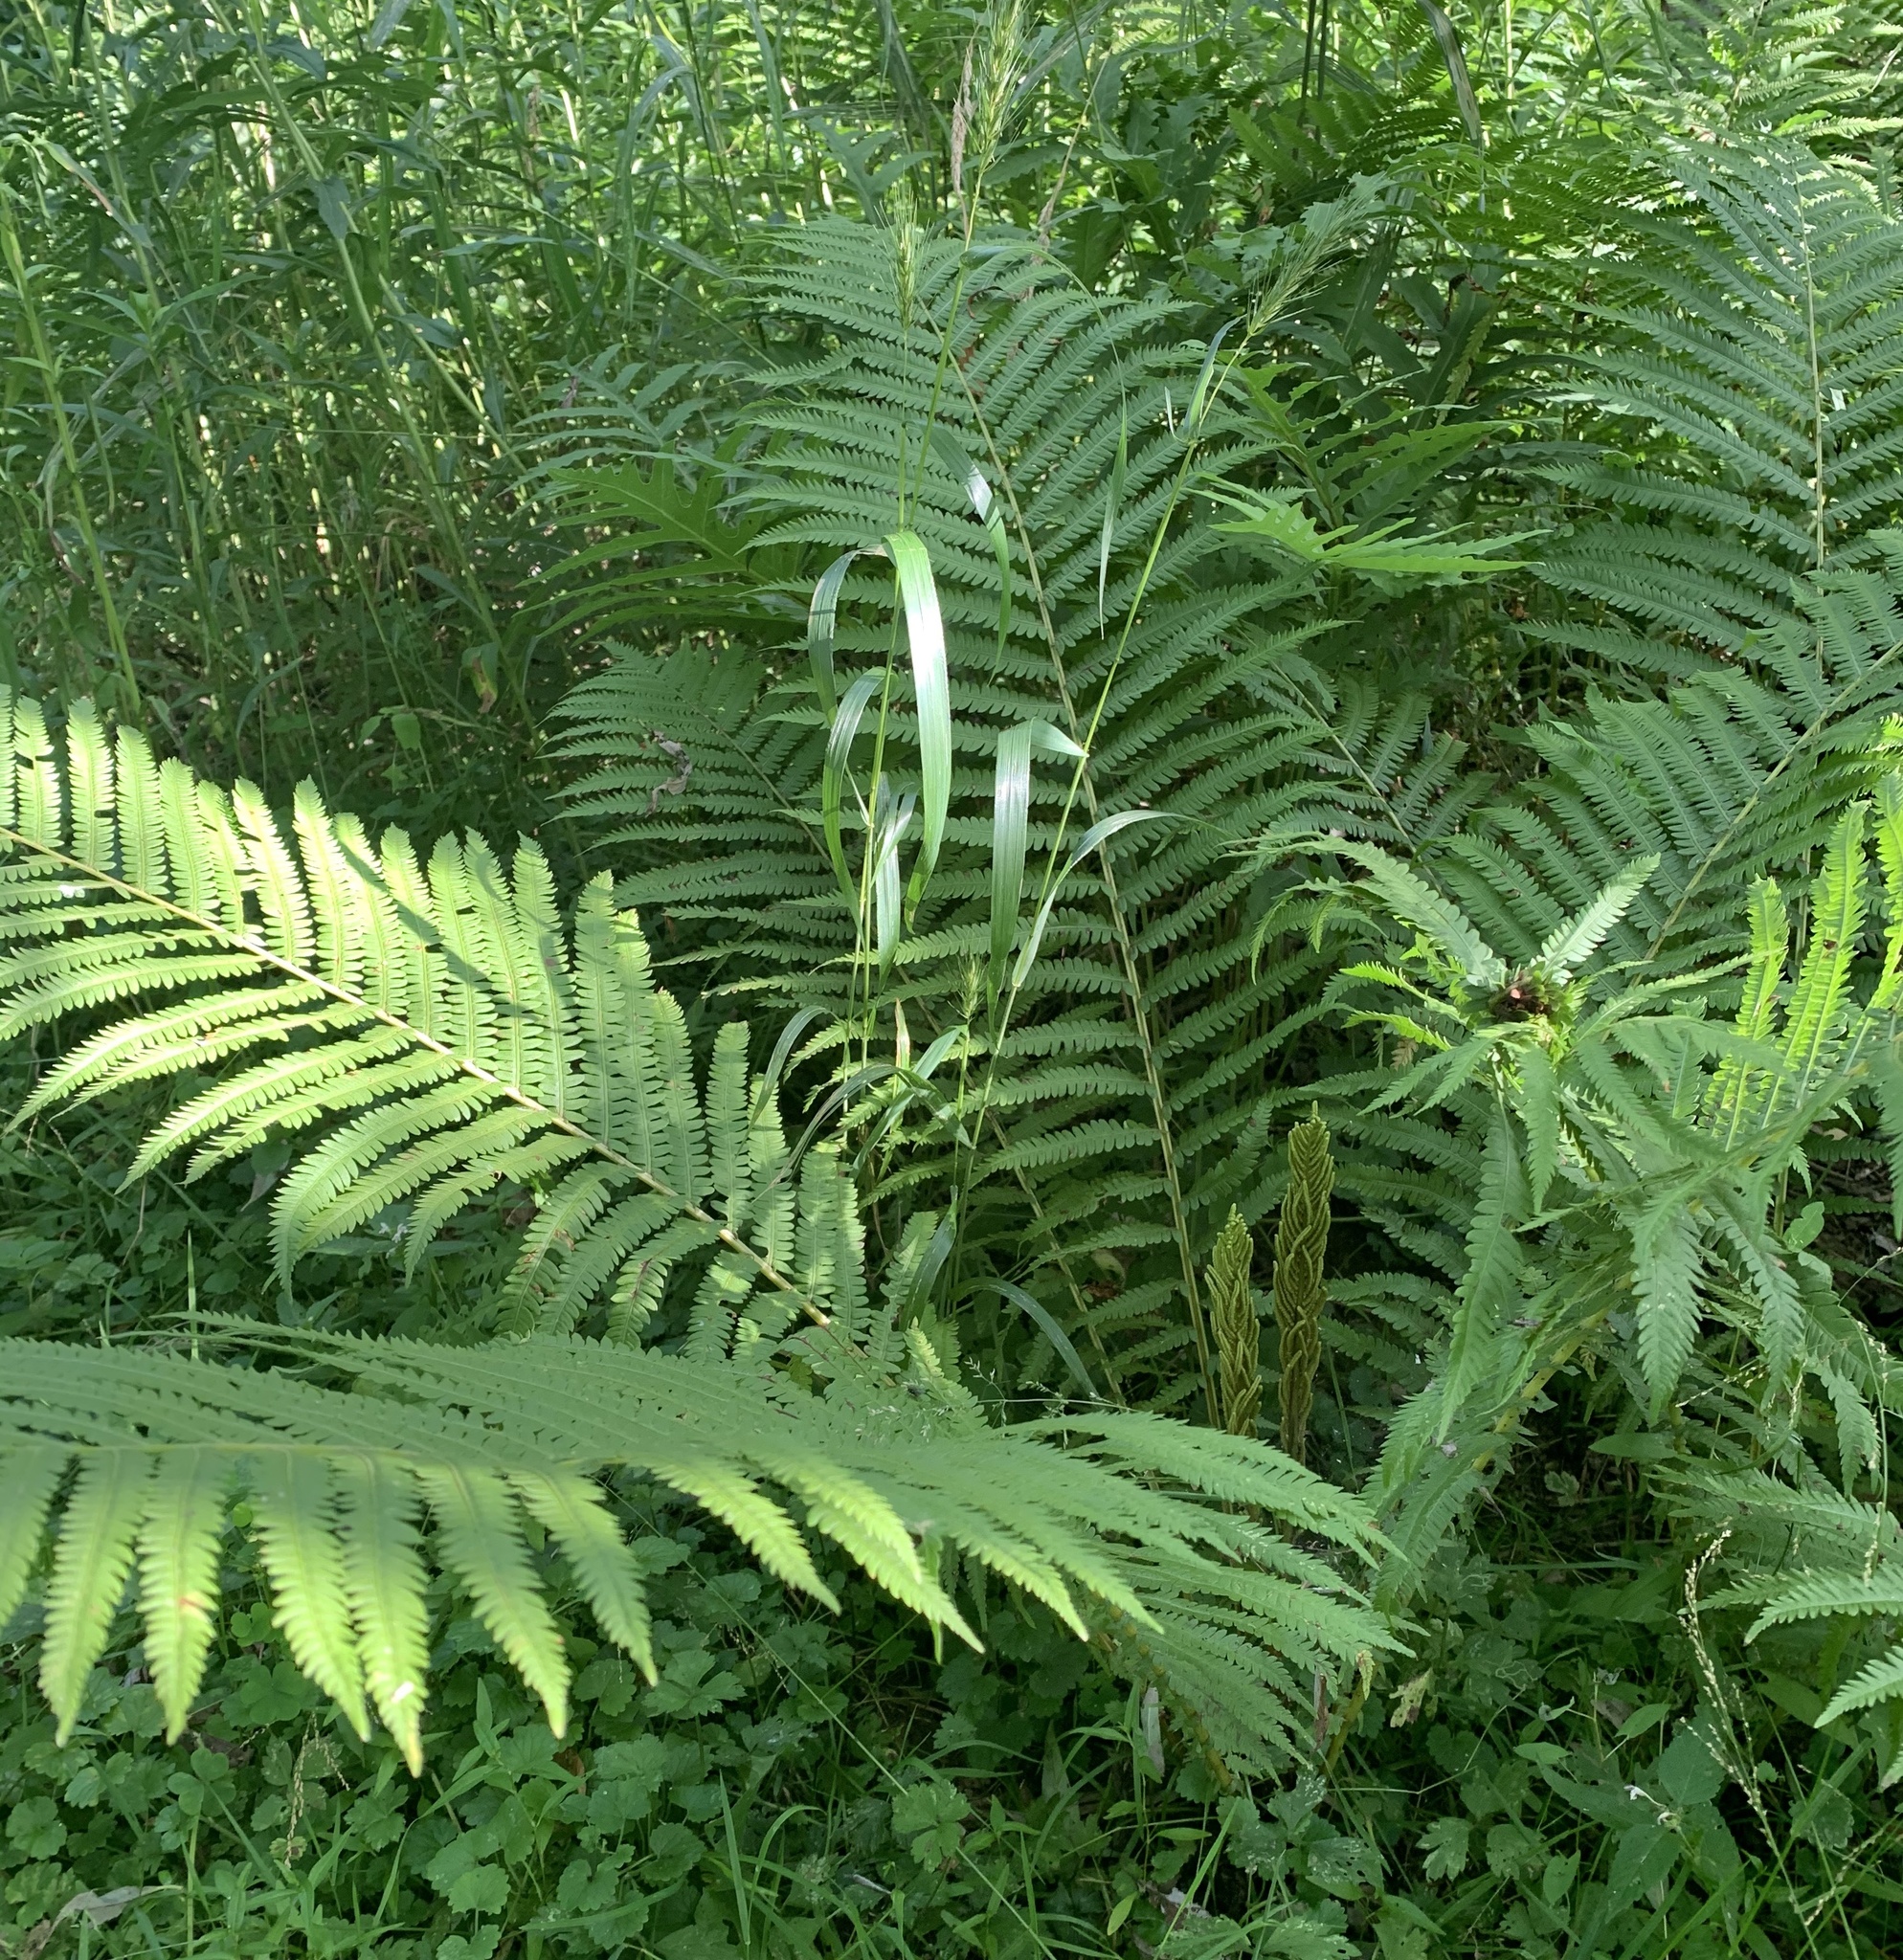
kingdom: Plantae
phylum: Tracheophyta
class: Polypodiopsida
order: Polypodiales
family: Onocleaceae
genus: Matteuccia
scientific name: Matteuccia struthiopteris
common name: Ostrich fern
